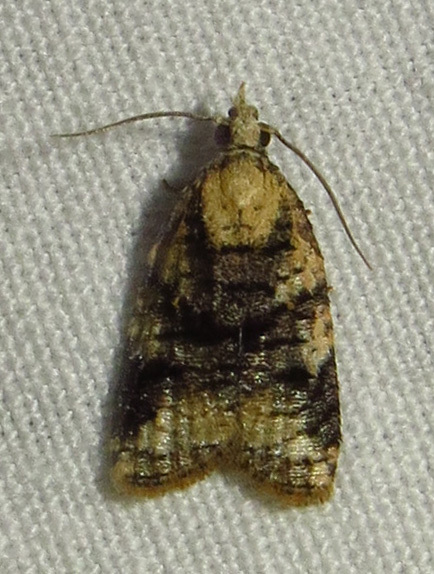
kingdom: Animalia
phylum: Arthropoda
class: Insecta
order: Lepidoptera
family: Tortricidae
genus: Platynota
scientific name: Platynota exasperatana
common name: Exasperating platynota moth
